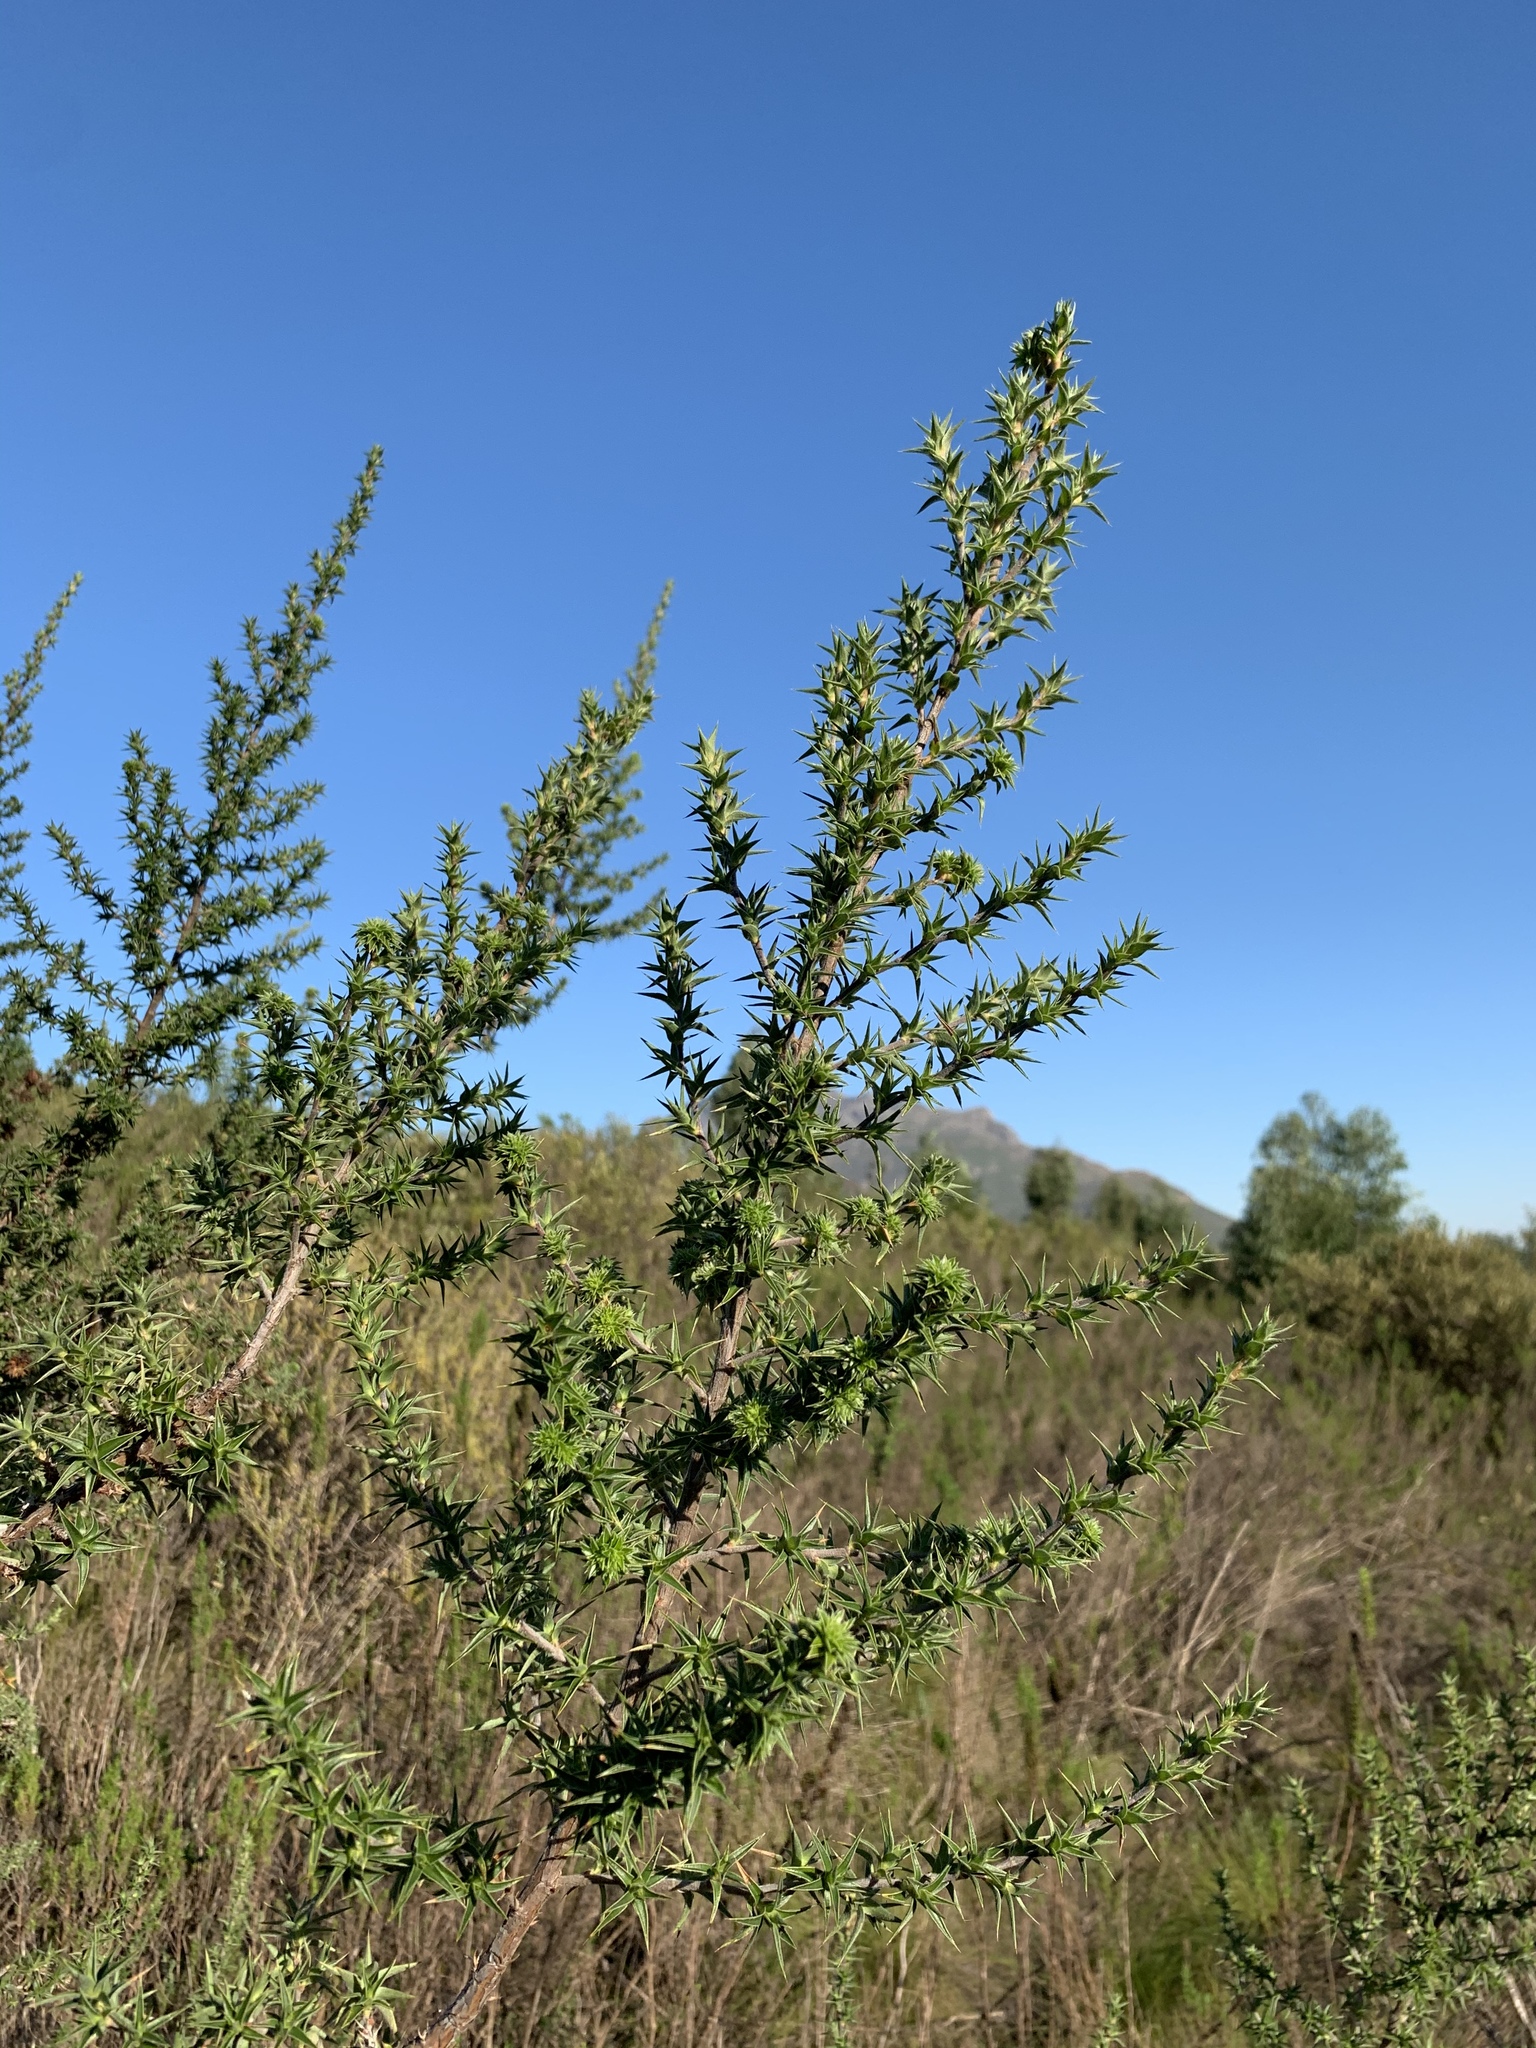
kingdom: Plantae
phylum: Tracheophyta
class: Magnoliopsida
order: Rosales
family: Rosaceae
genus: Cliffortia
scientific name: Cliffortia ruscifolia
